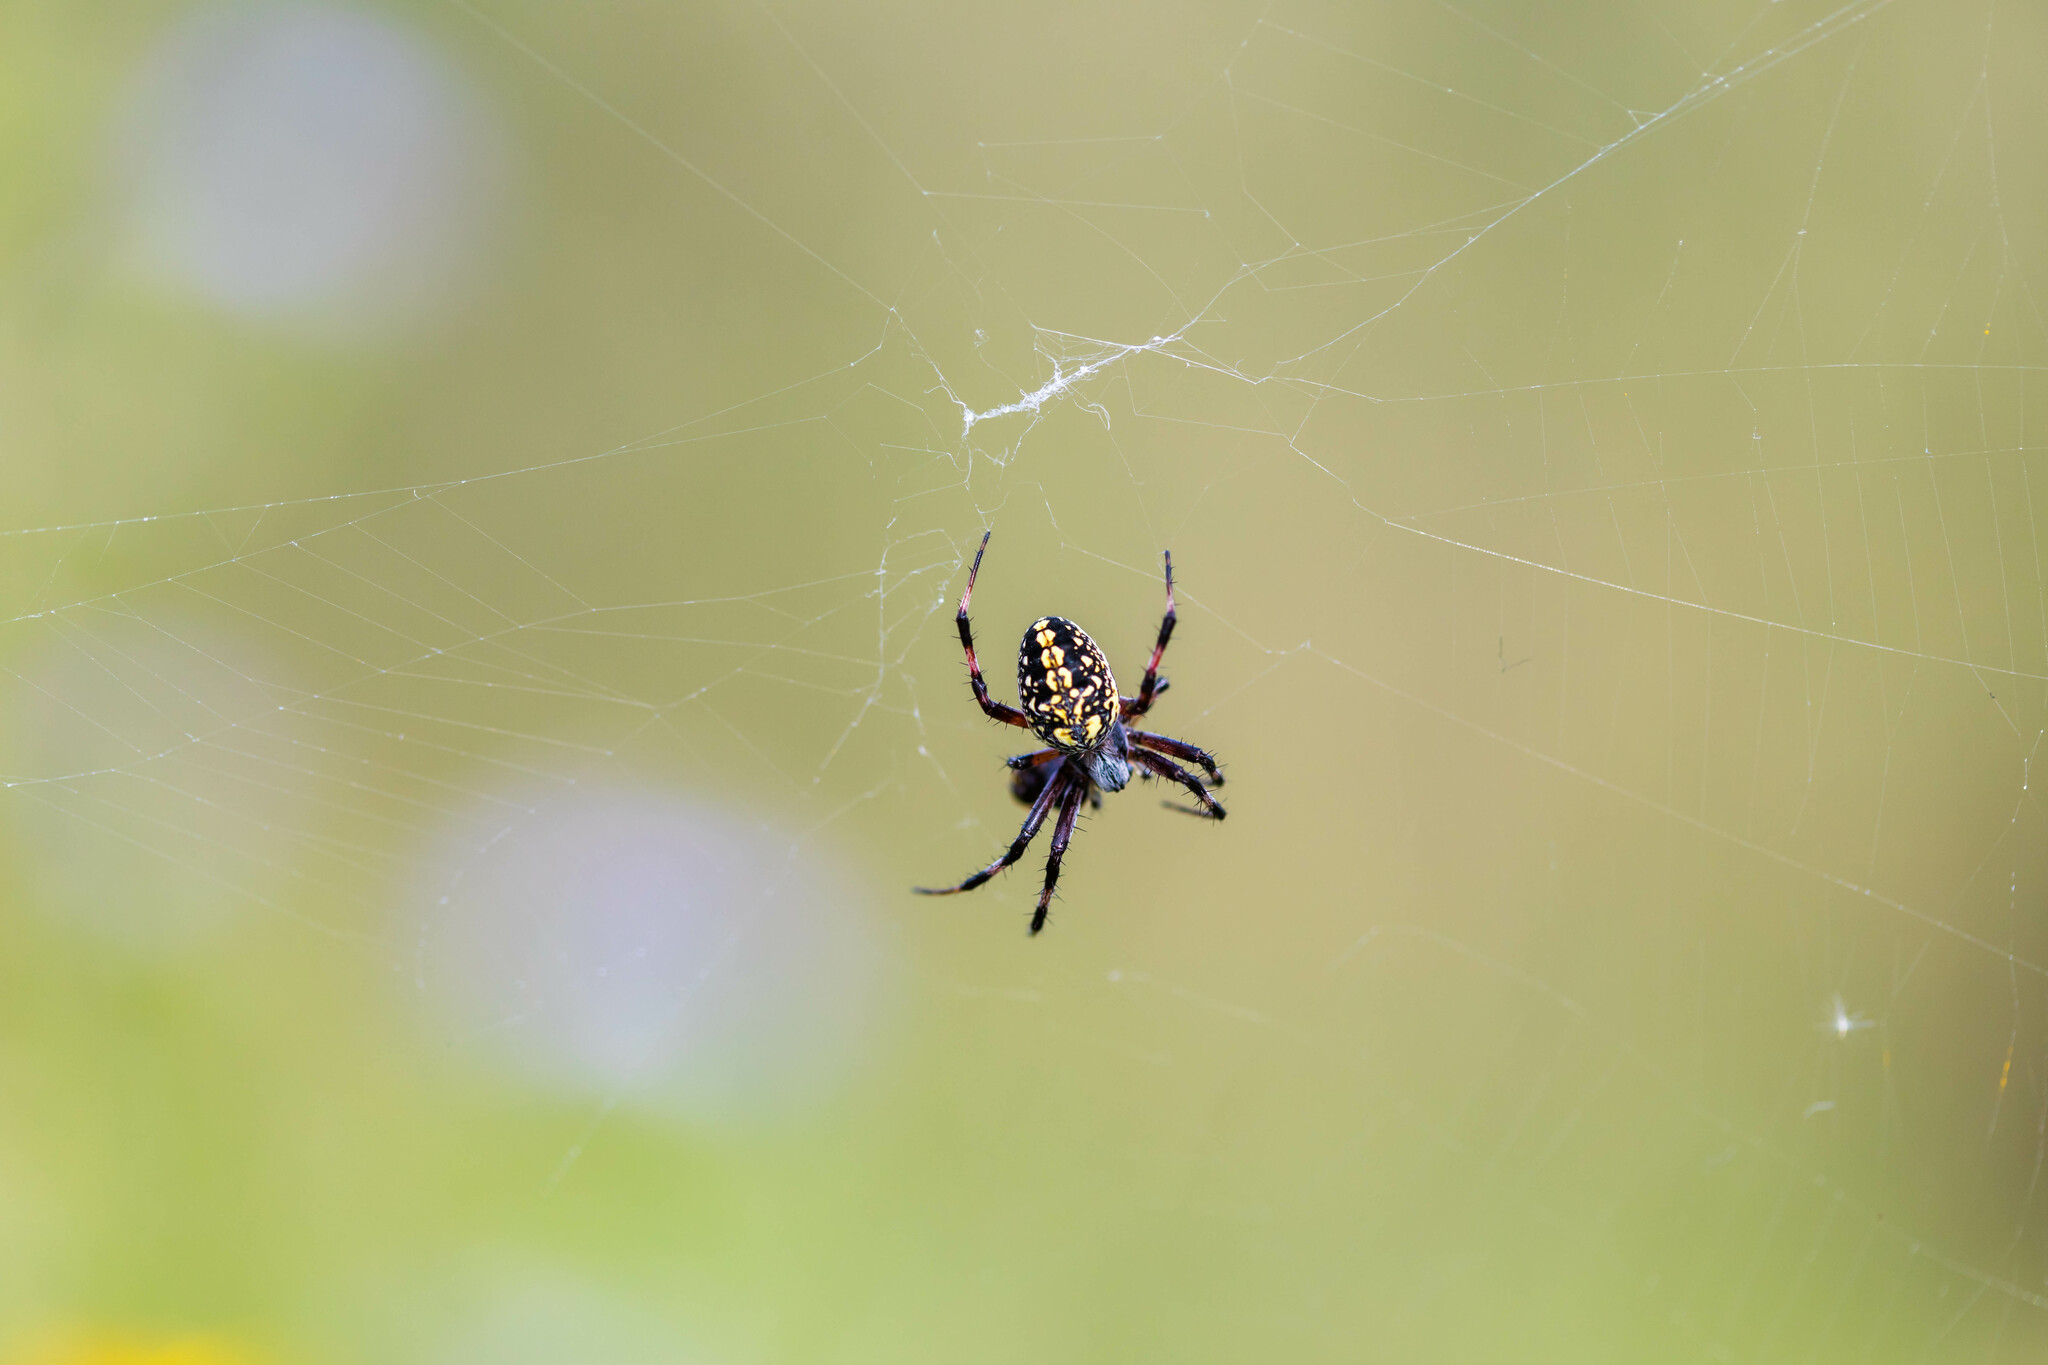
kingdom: Animalia
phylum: Arthropoda
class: Arachnida
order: Araneae
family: Araneidae
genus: Neoscona
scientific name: Neoscona oaxacensis
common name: Orb weavers
